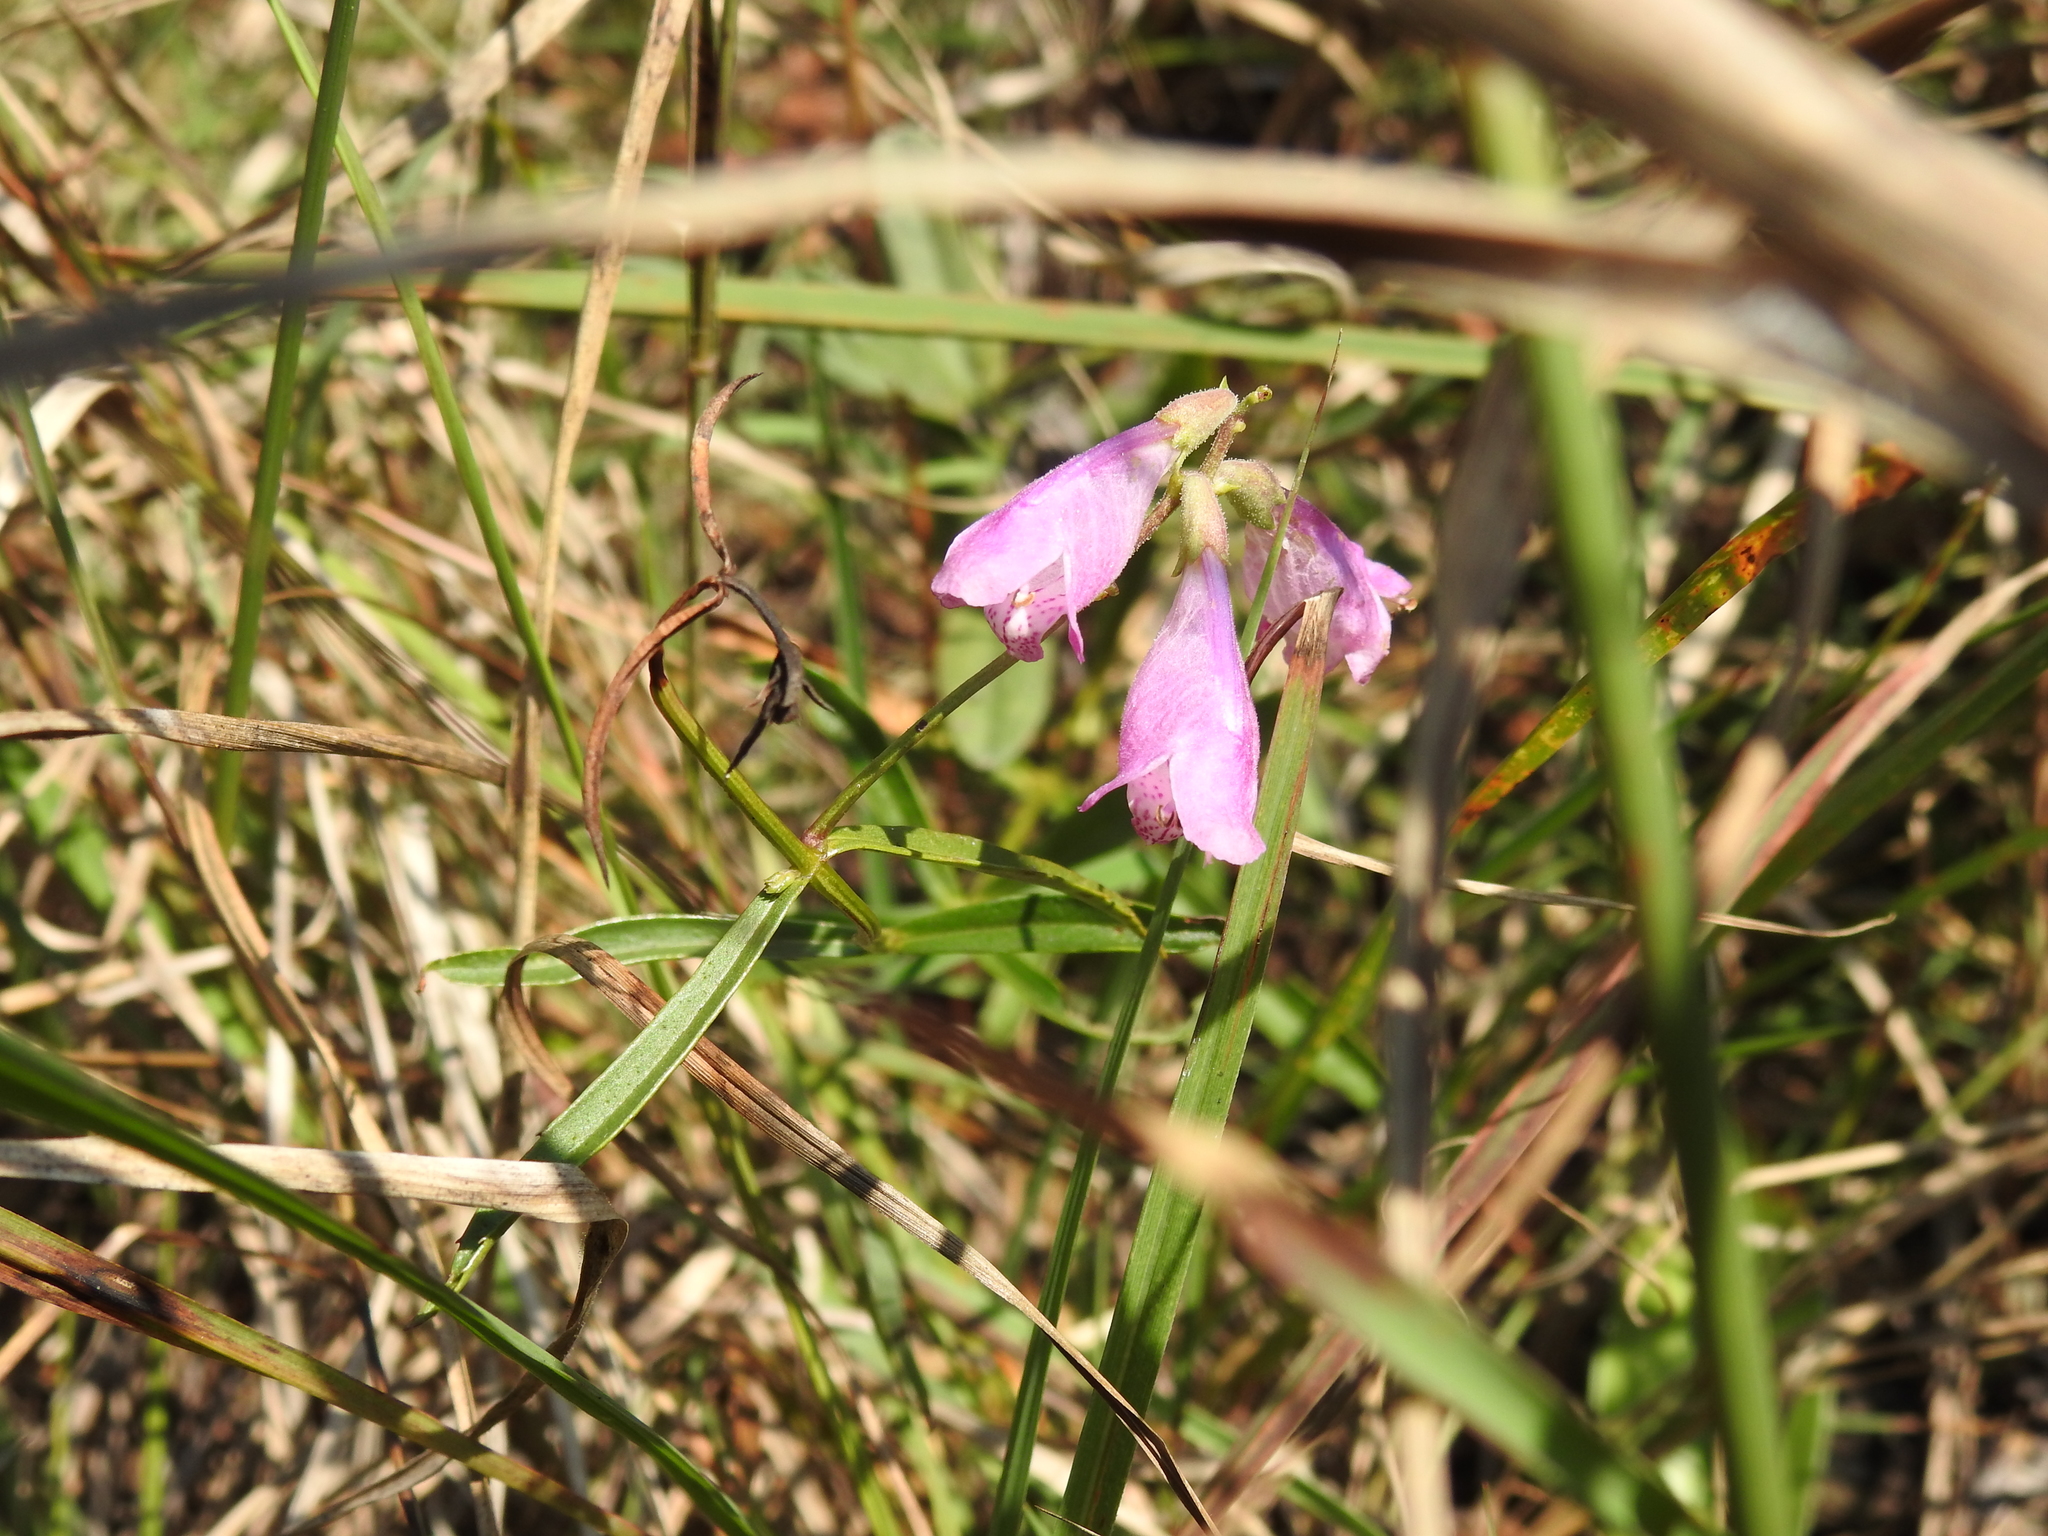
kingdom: Plantae
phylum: Tracheophyta
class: Magnoliopsida
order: Lamiales
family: Lamiaceae
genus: Physostegia
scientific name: Physostegia virginiana
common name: Obedient-plant
